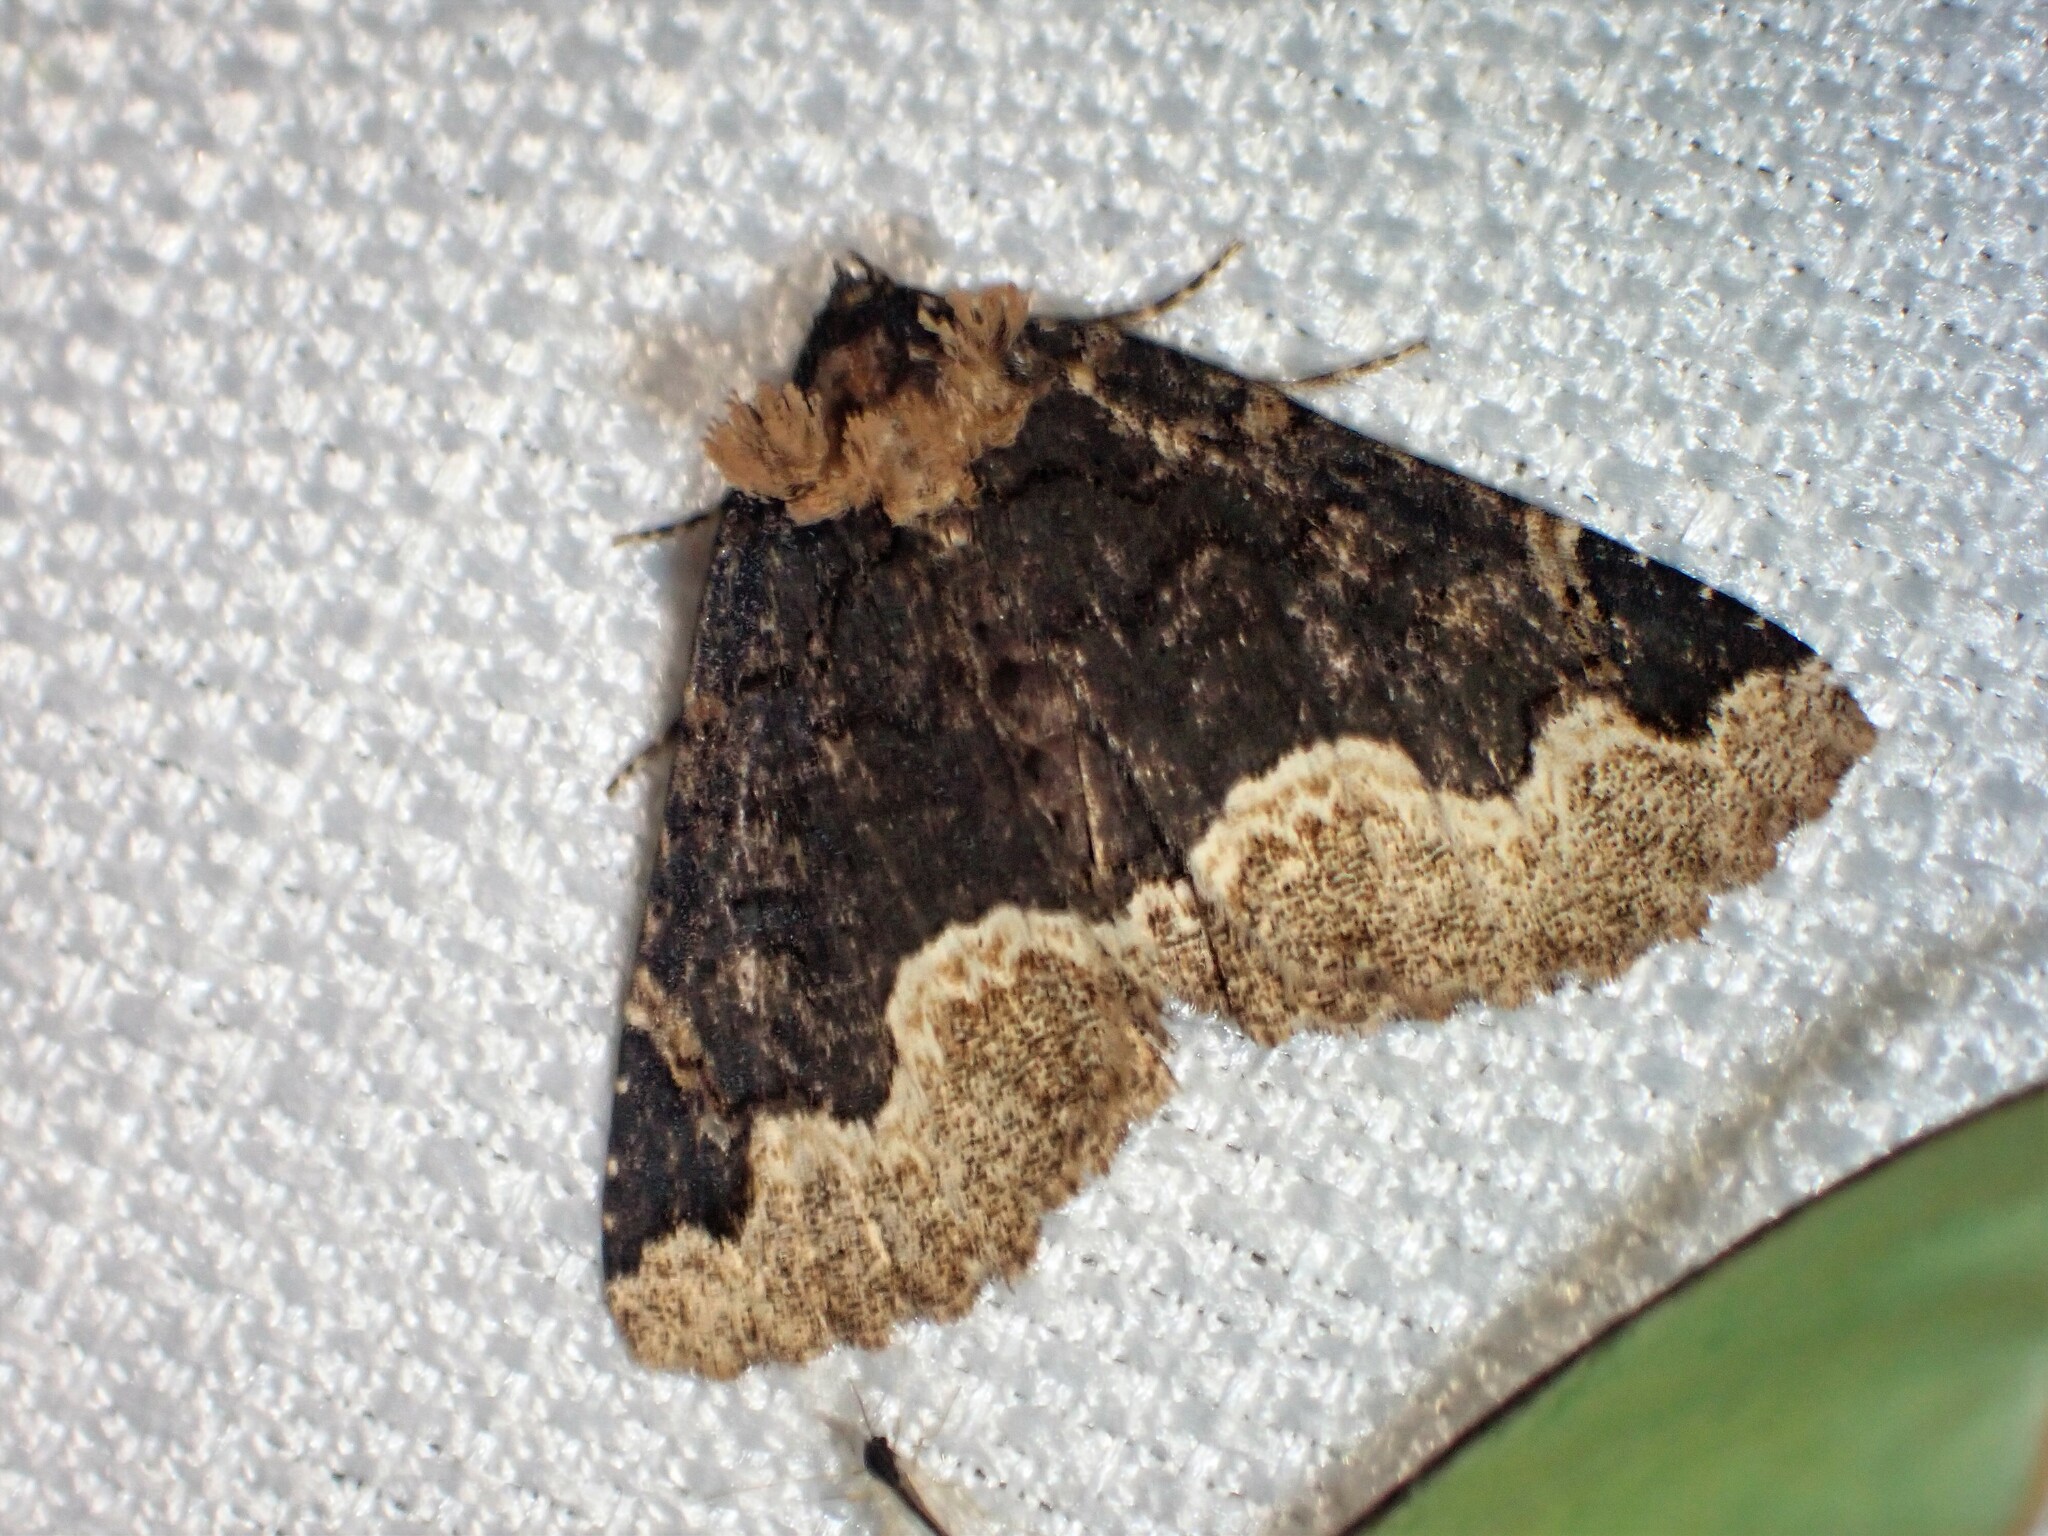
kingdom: Animalia
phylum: Arthropoda
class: Insecta
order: Lepidoptera
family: Erebidae
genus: Zale
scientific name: Zale horrida
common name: Horrid zale moth
